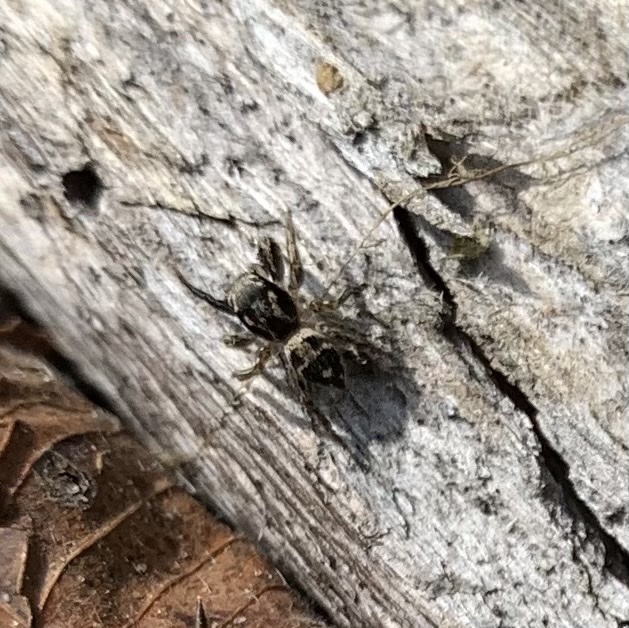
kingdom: Animalia
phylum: Arthropoda
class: Arachnida
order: Araneae
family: Salticidae
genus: Habronattus
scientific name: Habronattus coecatus
